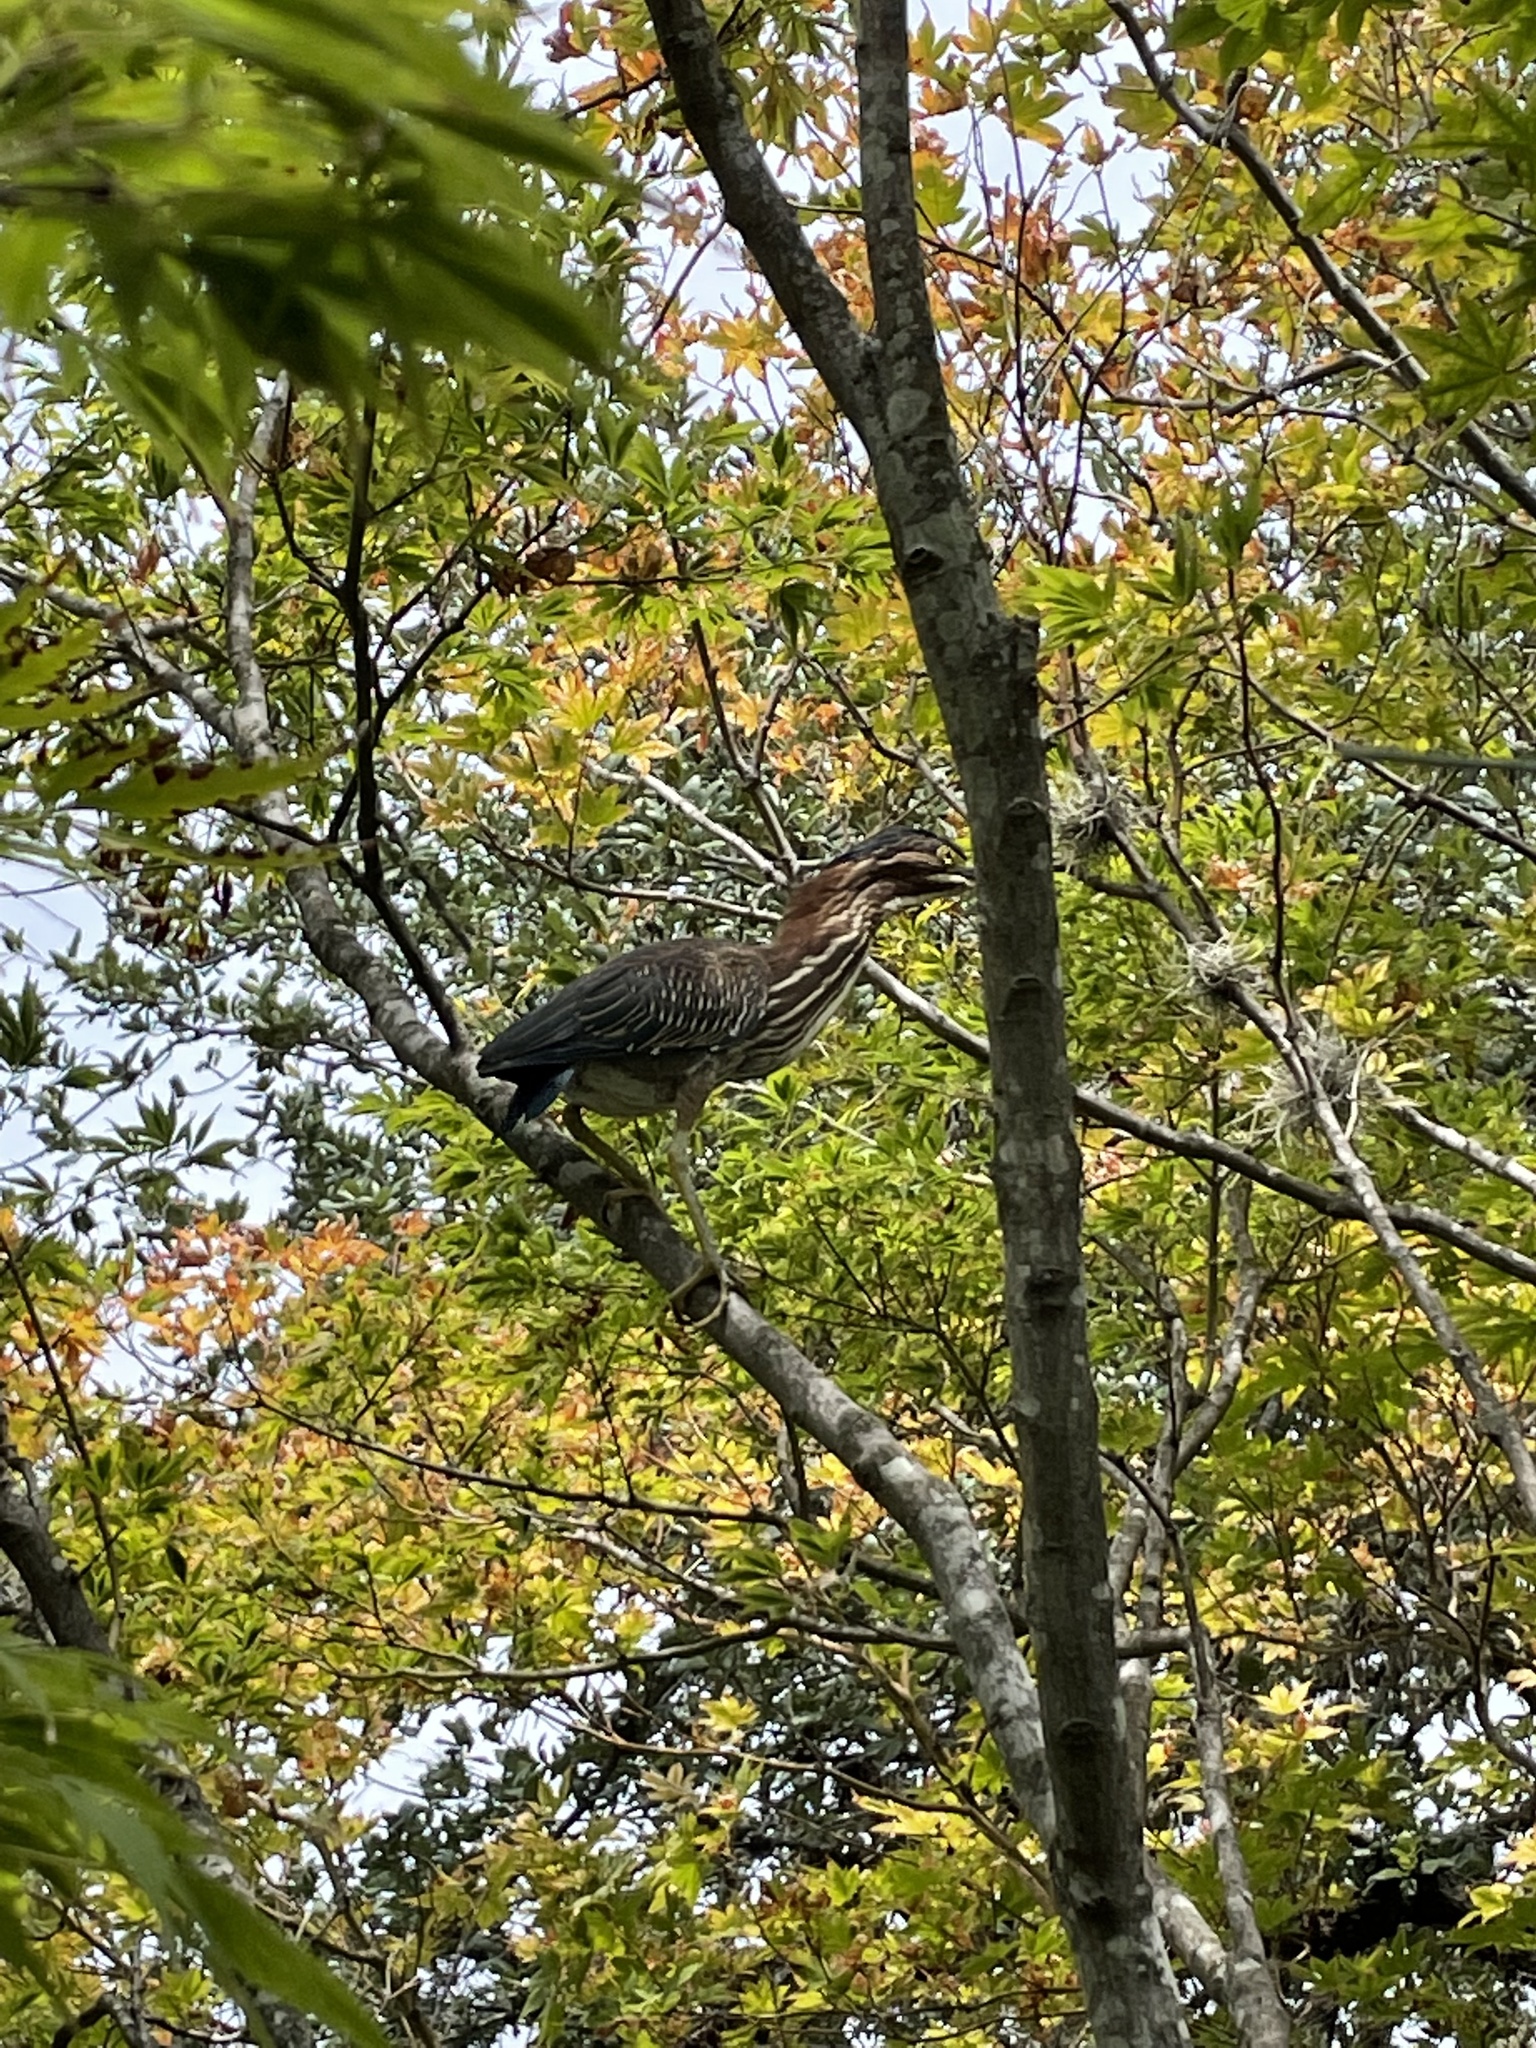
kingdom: Animalia
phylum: Chordata
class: Aves
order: Pelecaniformes
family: Ardeidae
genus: Butorides
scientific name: Butorides virescens
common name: Green heron
